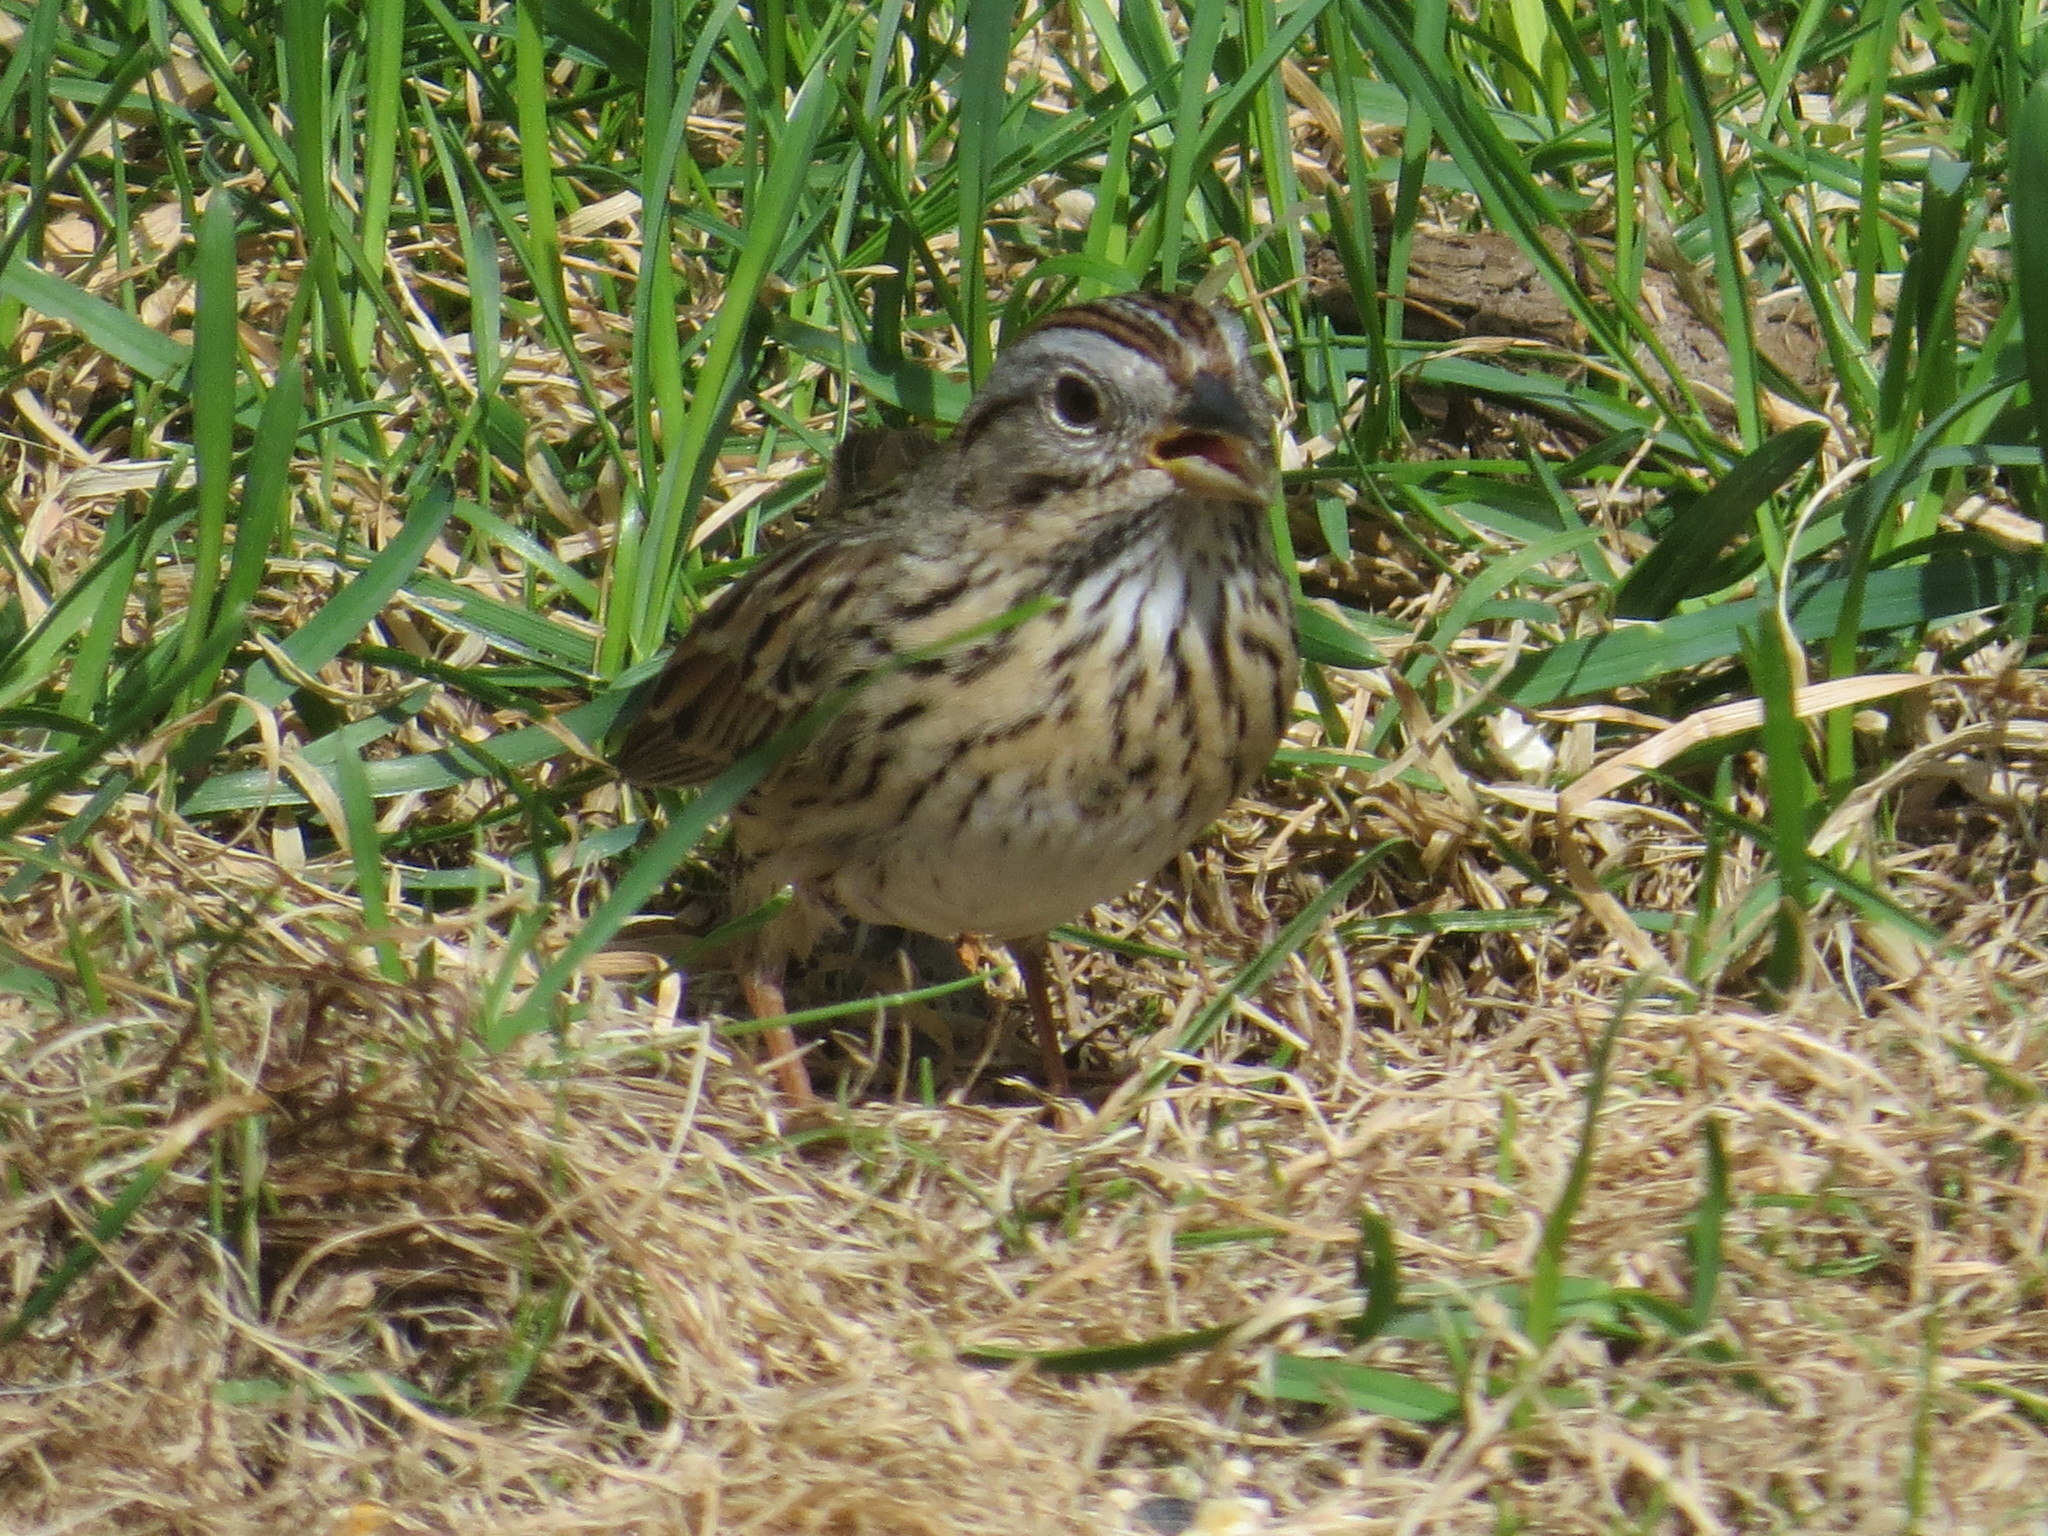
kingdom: Animalia
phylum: Chordata
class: Aves
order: Passeriformes
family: Passerellidae
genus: Melospiza
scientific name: Melospiza lincolnii
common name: Lincoln's sparrow
